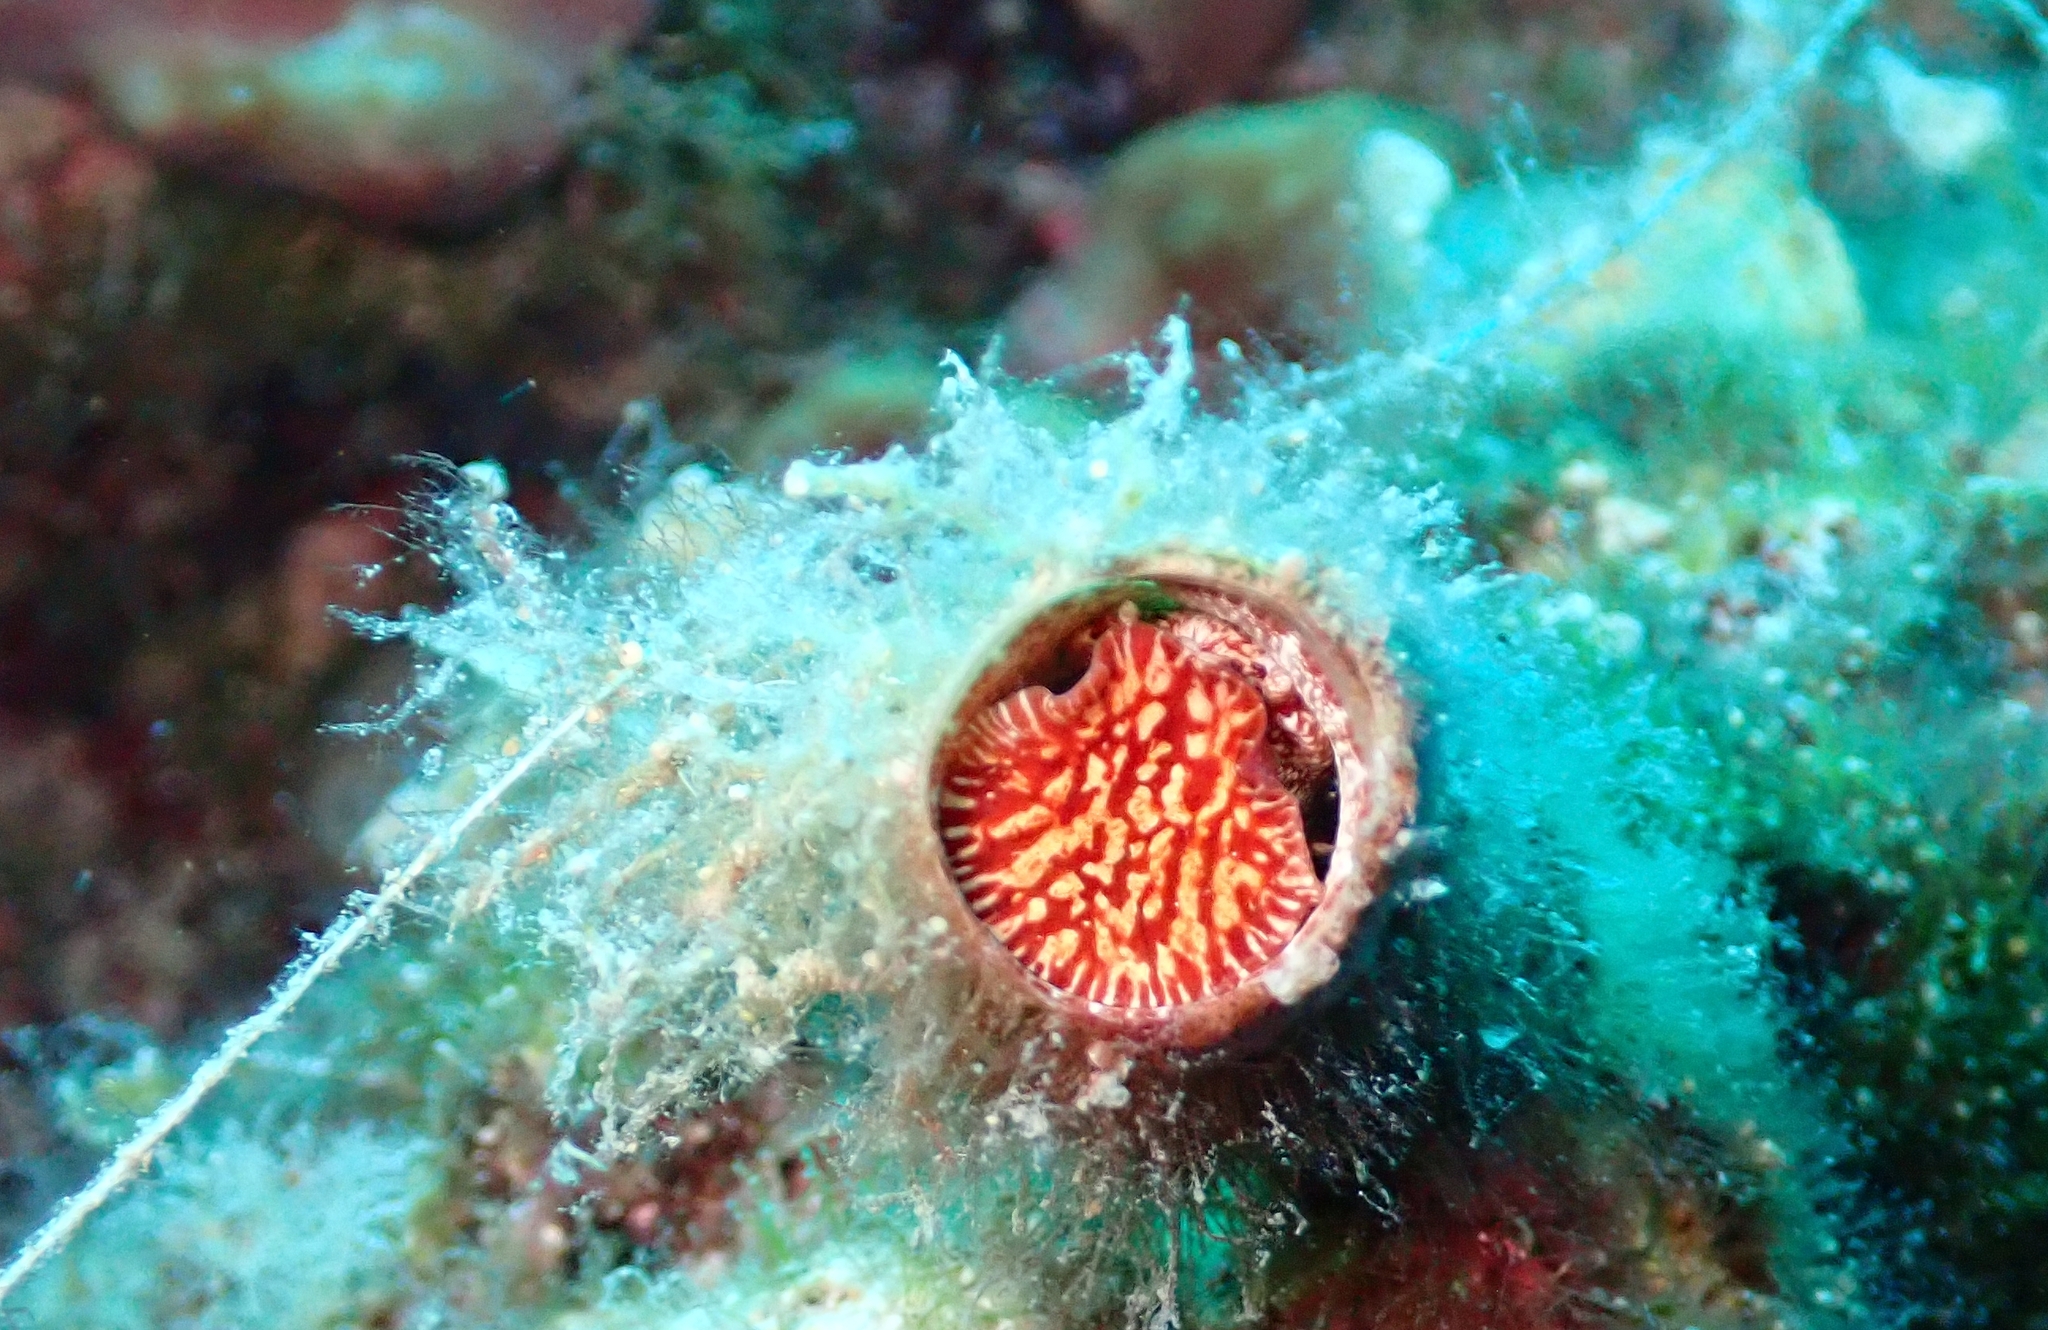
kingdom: Animalia
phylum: Mollusca
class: Gastropoda
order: Littorinimorpha
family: Vermetidae
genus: Thylacodes
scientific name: Thylacodes arenarius
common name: Giant worm shell
